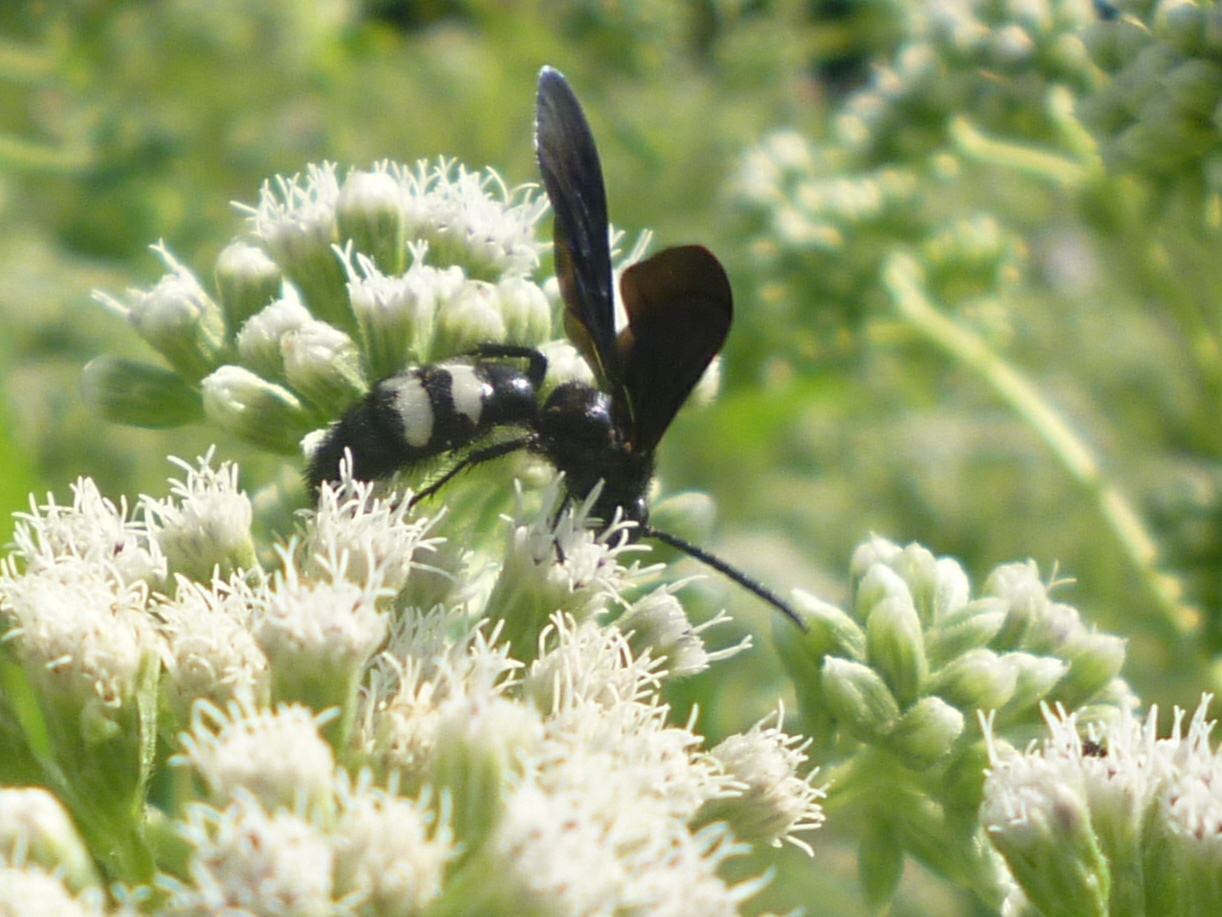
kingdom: Animalia
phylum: Arthropoda
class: Insecta
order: Hymenoptera
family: Scoliidae
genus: Scolia
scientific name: Scolia bicincta
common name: Double-banded scoliid wasp
